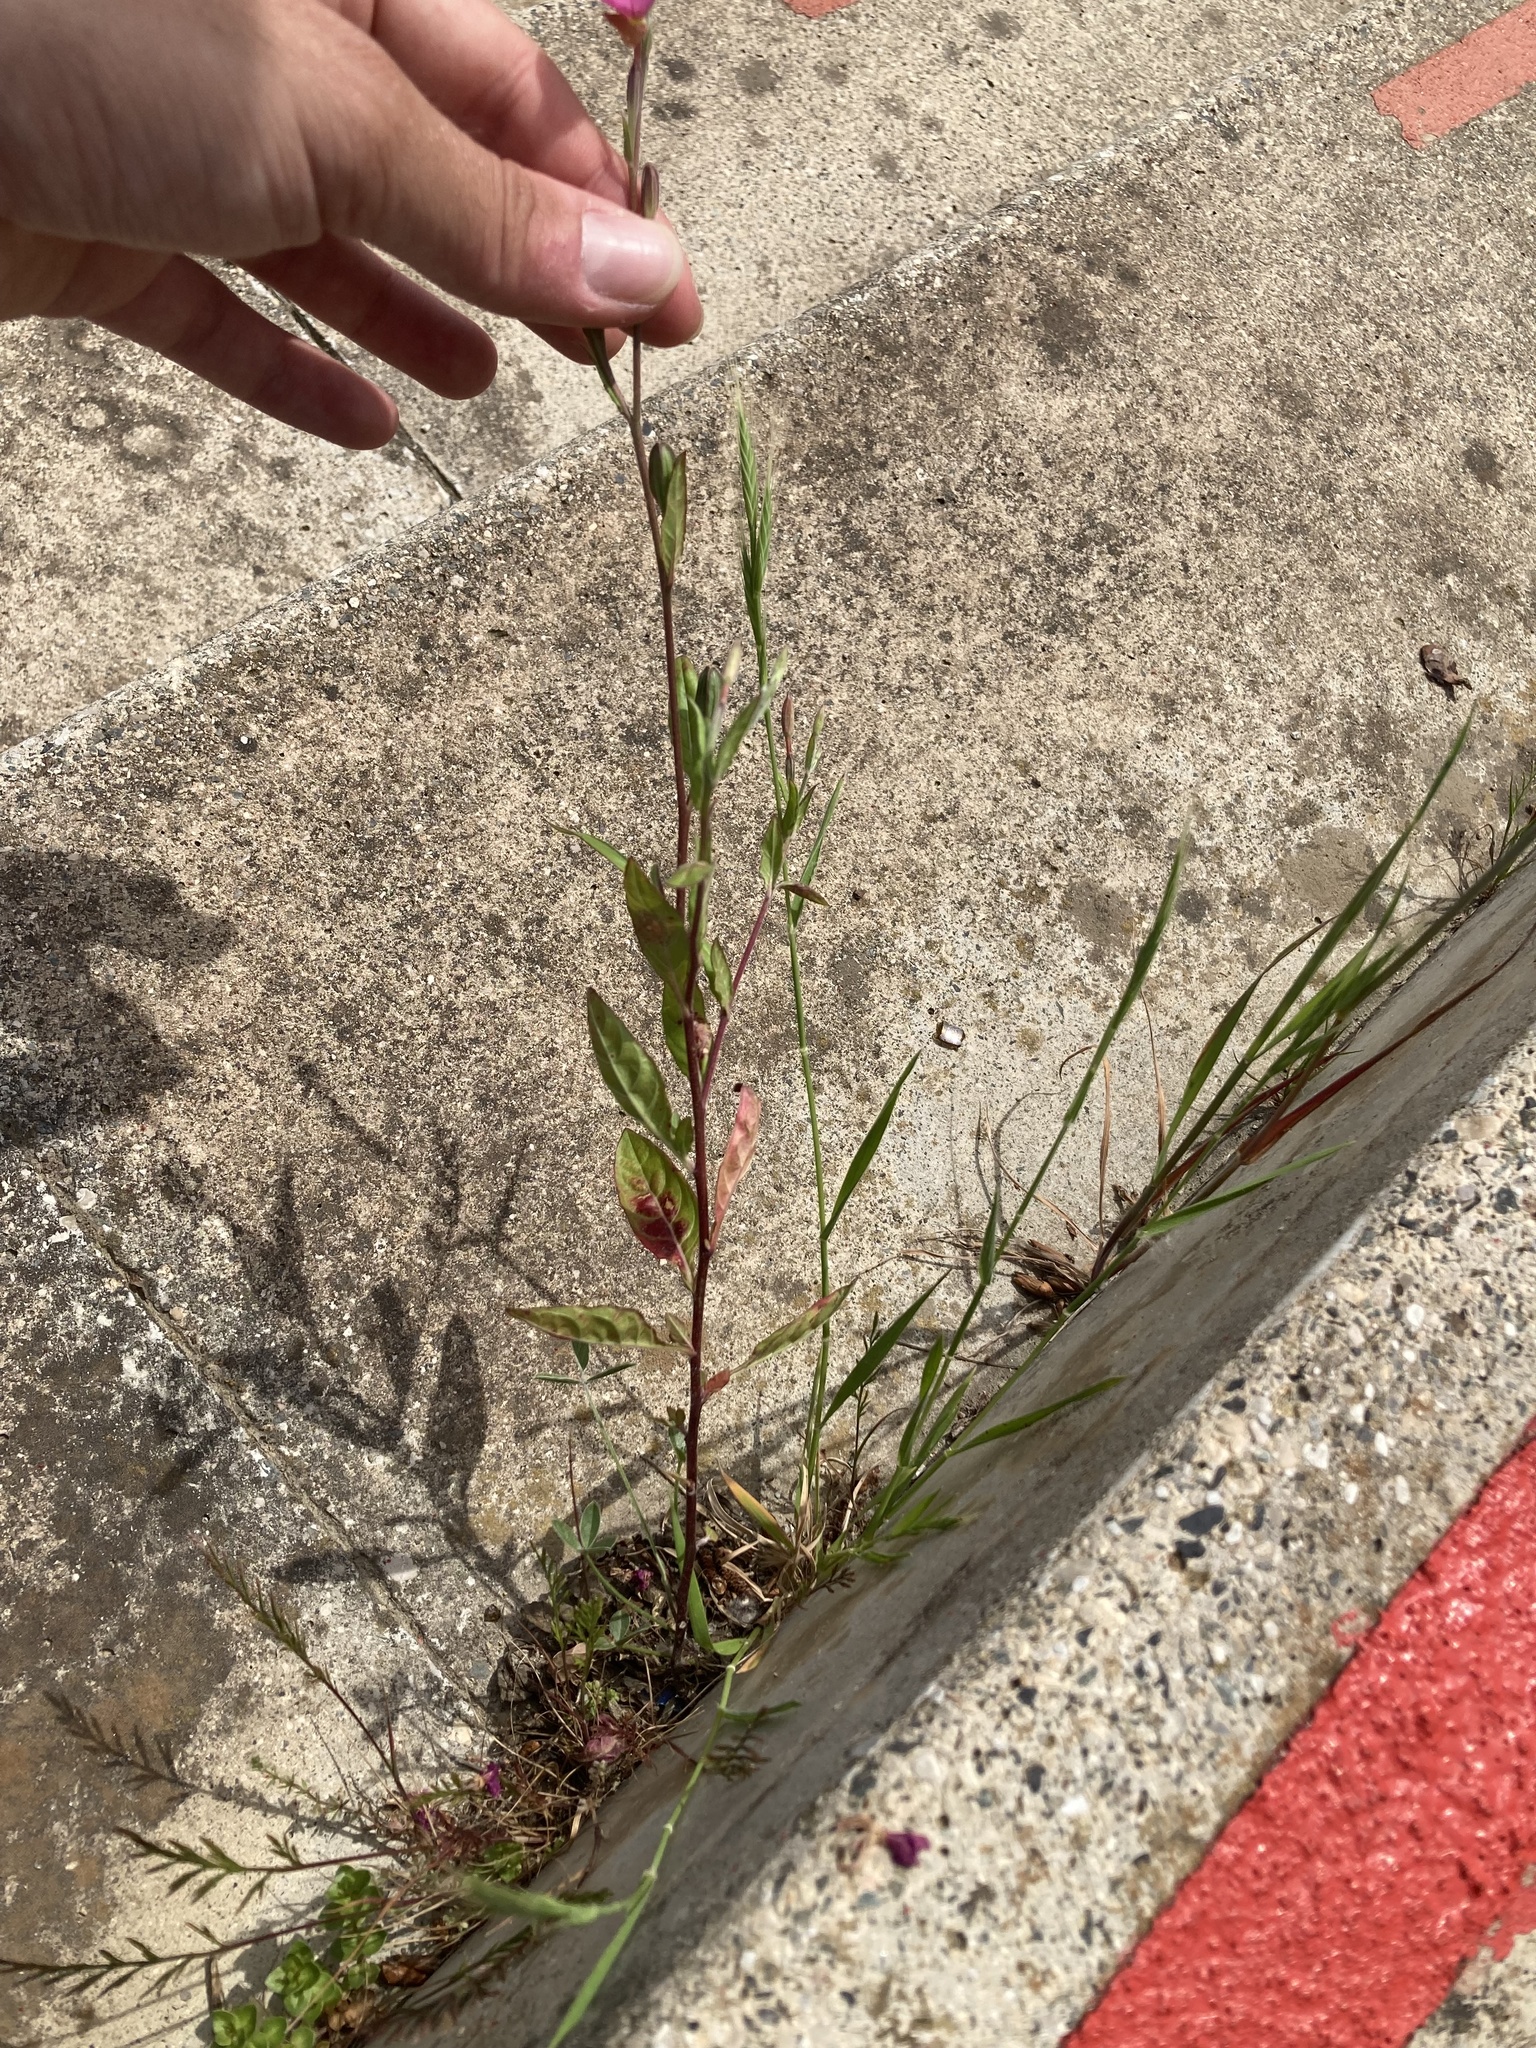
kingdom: Plantae
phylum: Tracheophyta
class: Magnoliopsida
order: Myrtales
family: Onagraceae
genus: Oenothera
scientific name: Oenothera rosea
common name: Rosy evening-primrose
